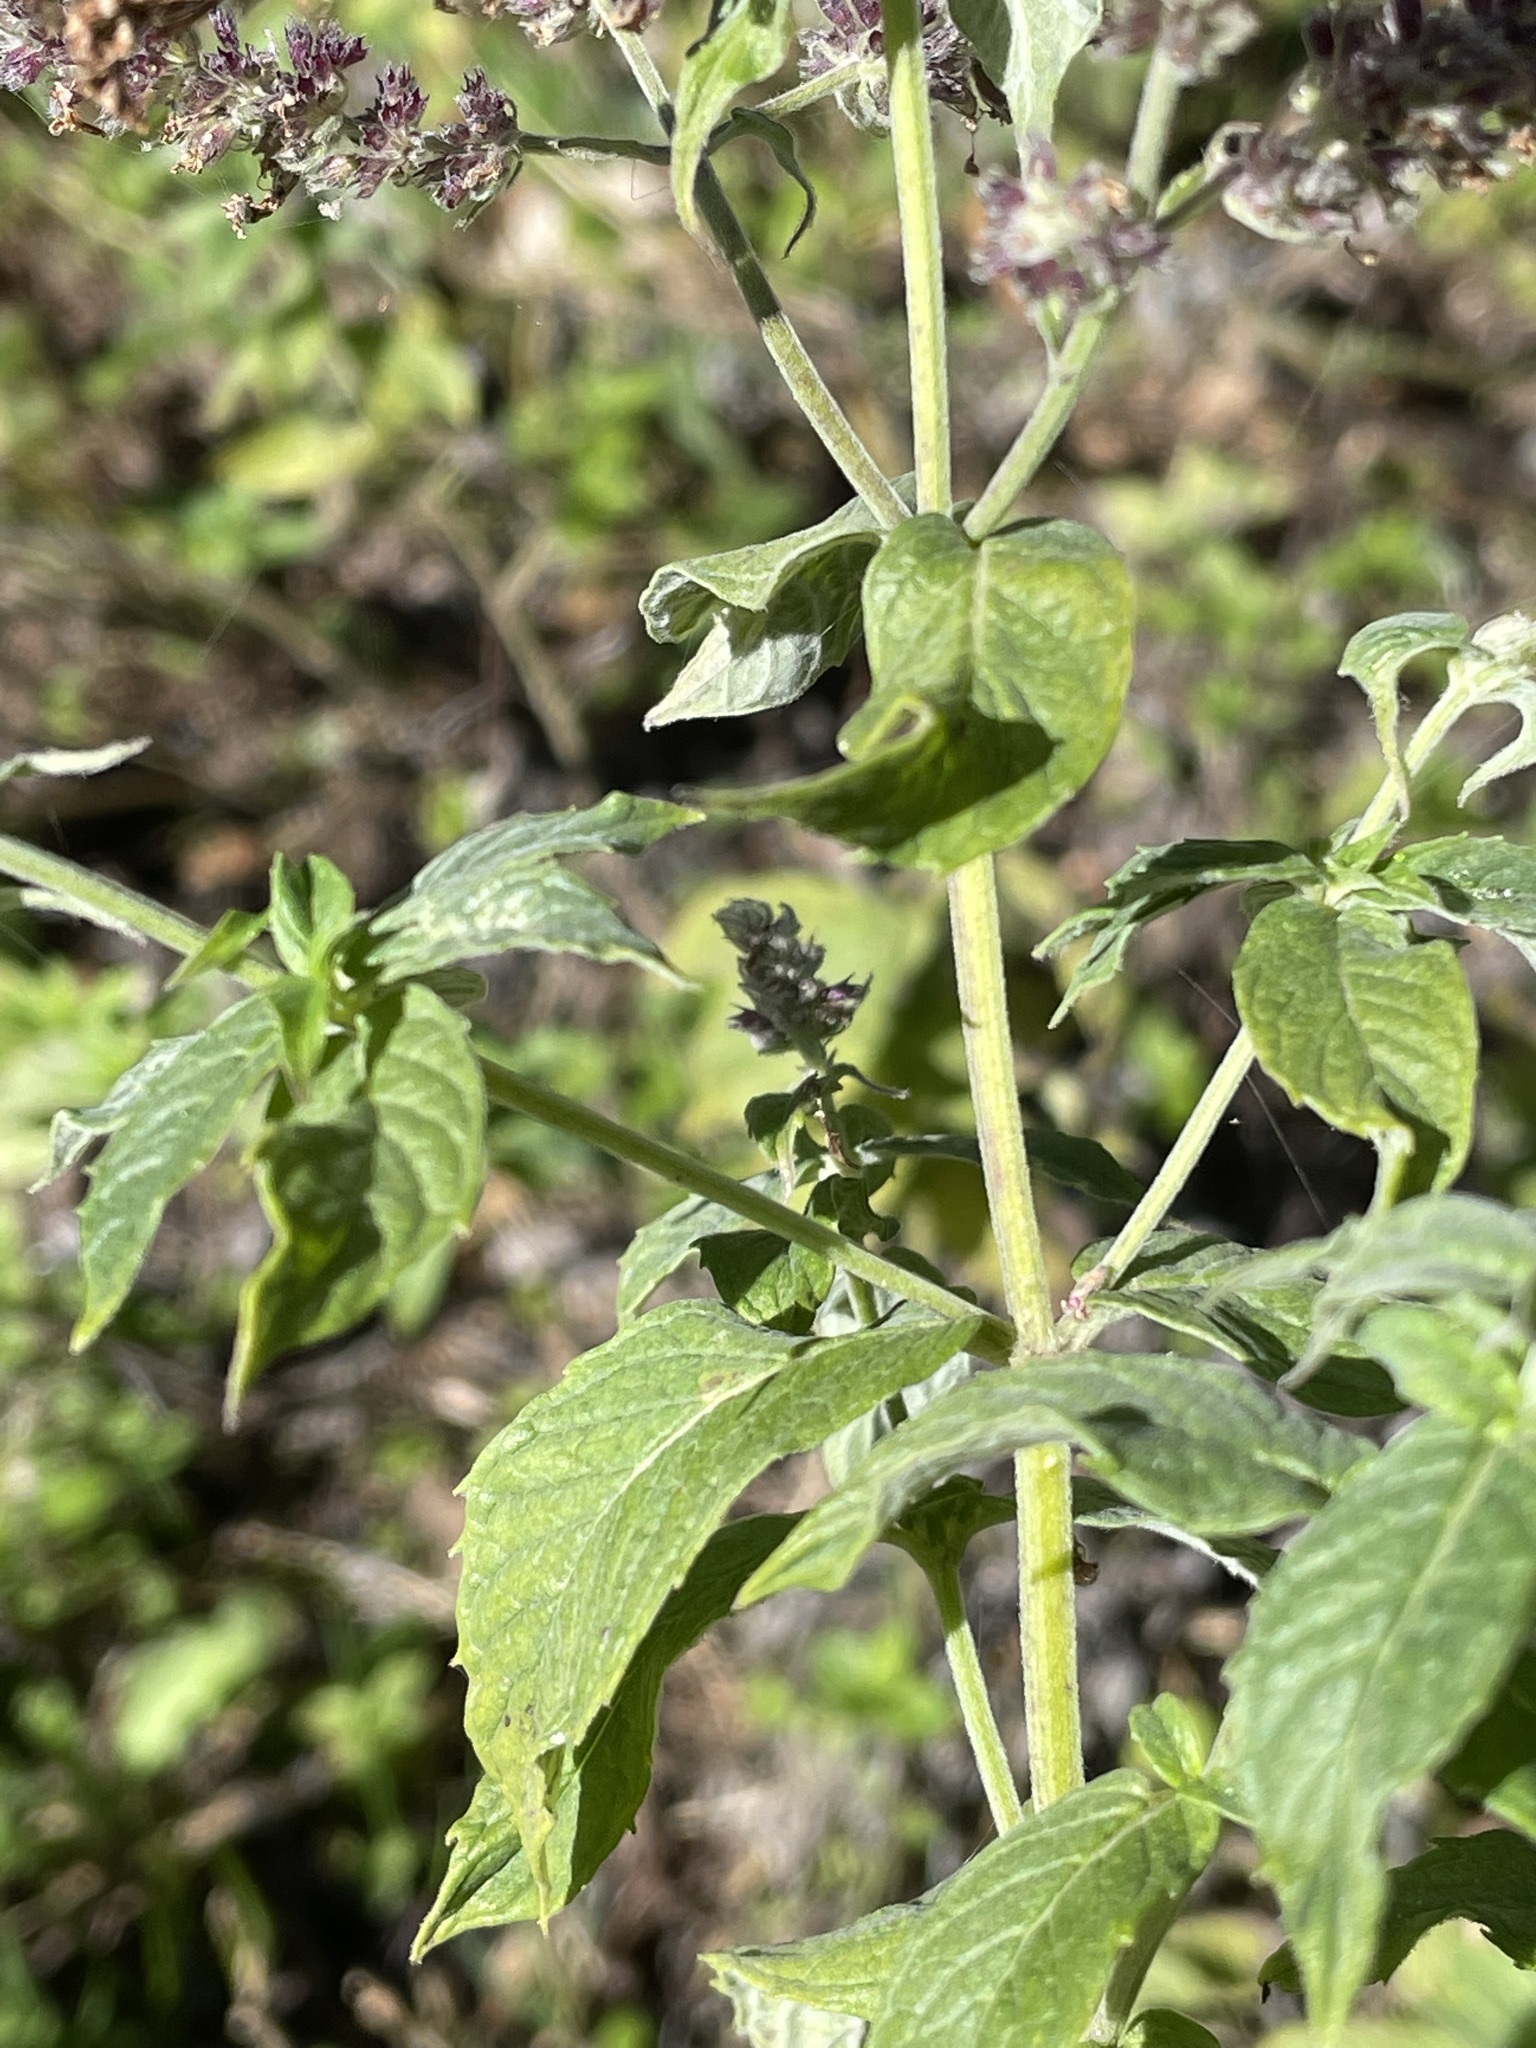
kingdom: Plantae
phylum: Tracheophyta
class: Magnoliopsida
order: Lamiales
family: Lamiaceae
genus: Mentha
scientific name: Mentha longifolia
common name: Horse mint
